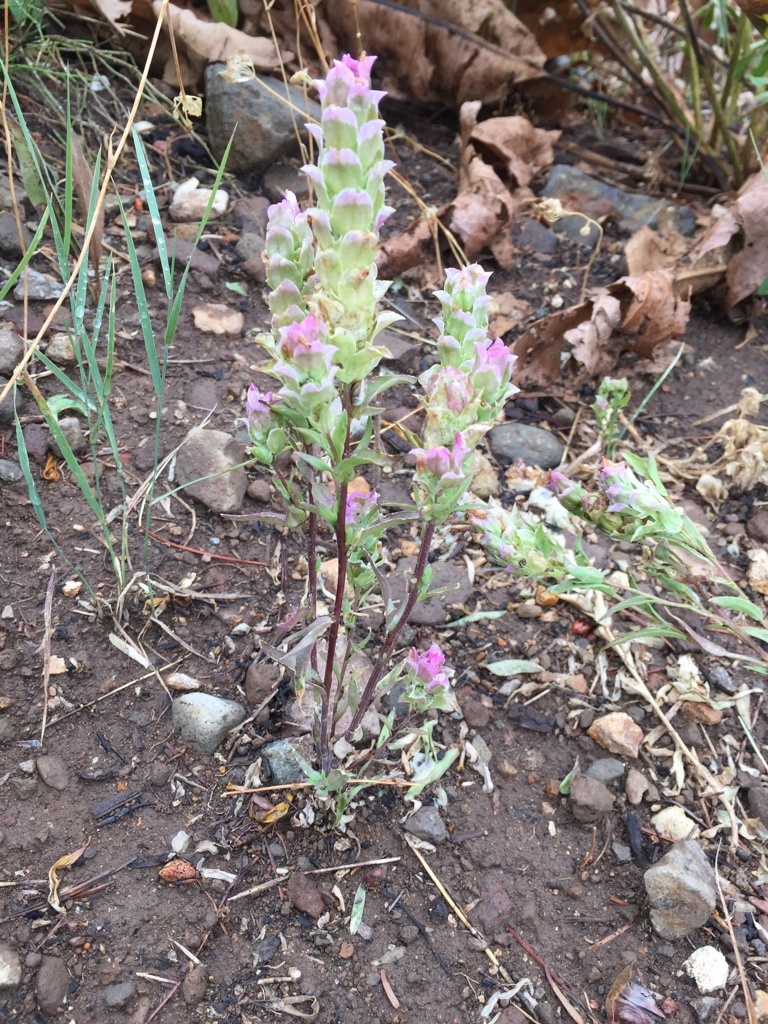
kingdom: Plantae
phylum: Tracheophyta
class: Magnoliopsida
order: Lamiales
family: Orobanchaceae
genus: Orthocarpus
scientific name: Orthocarpus cuspidatus
